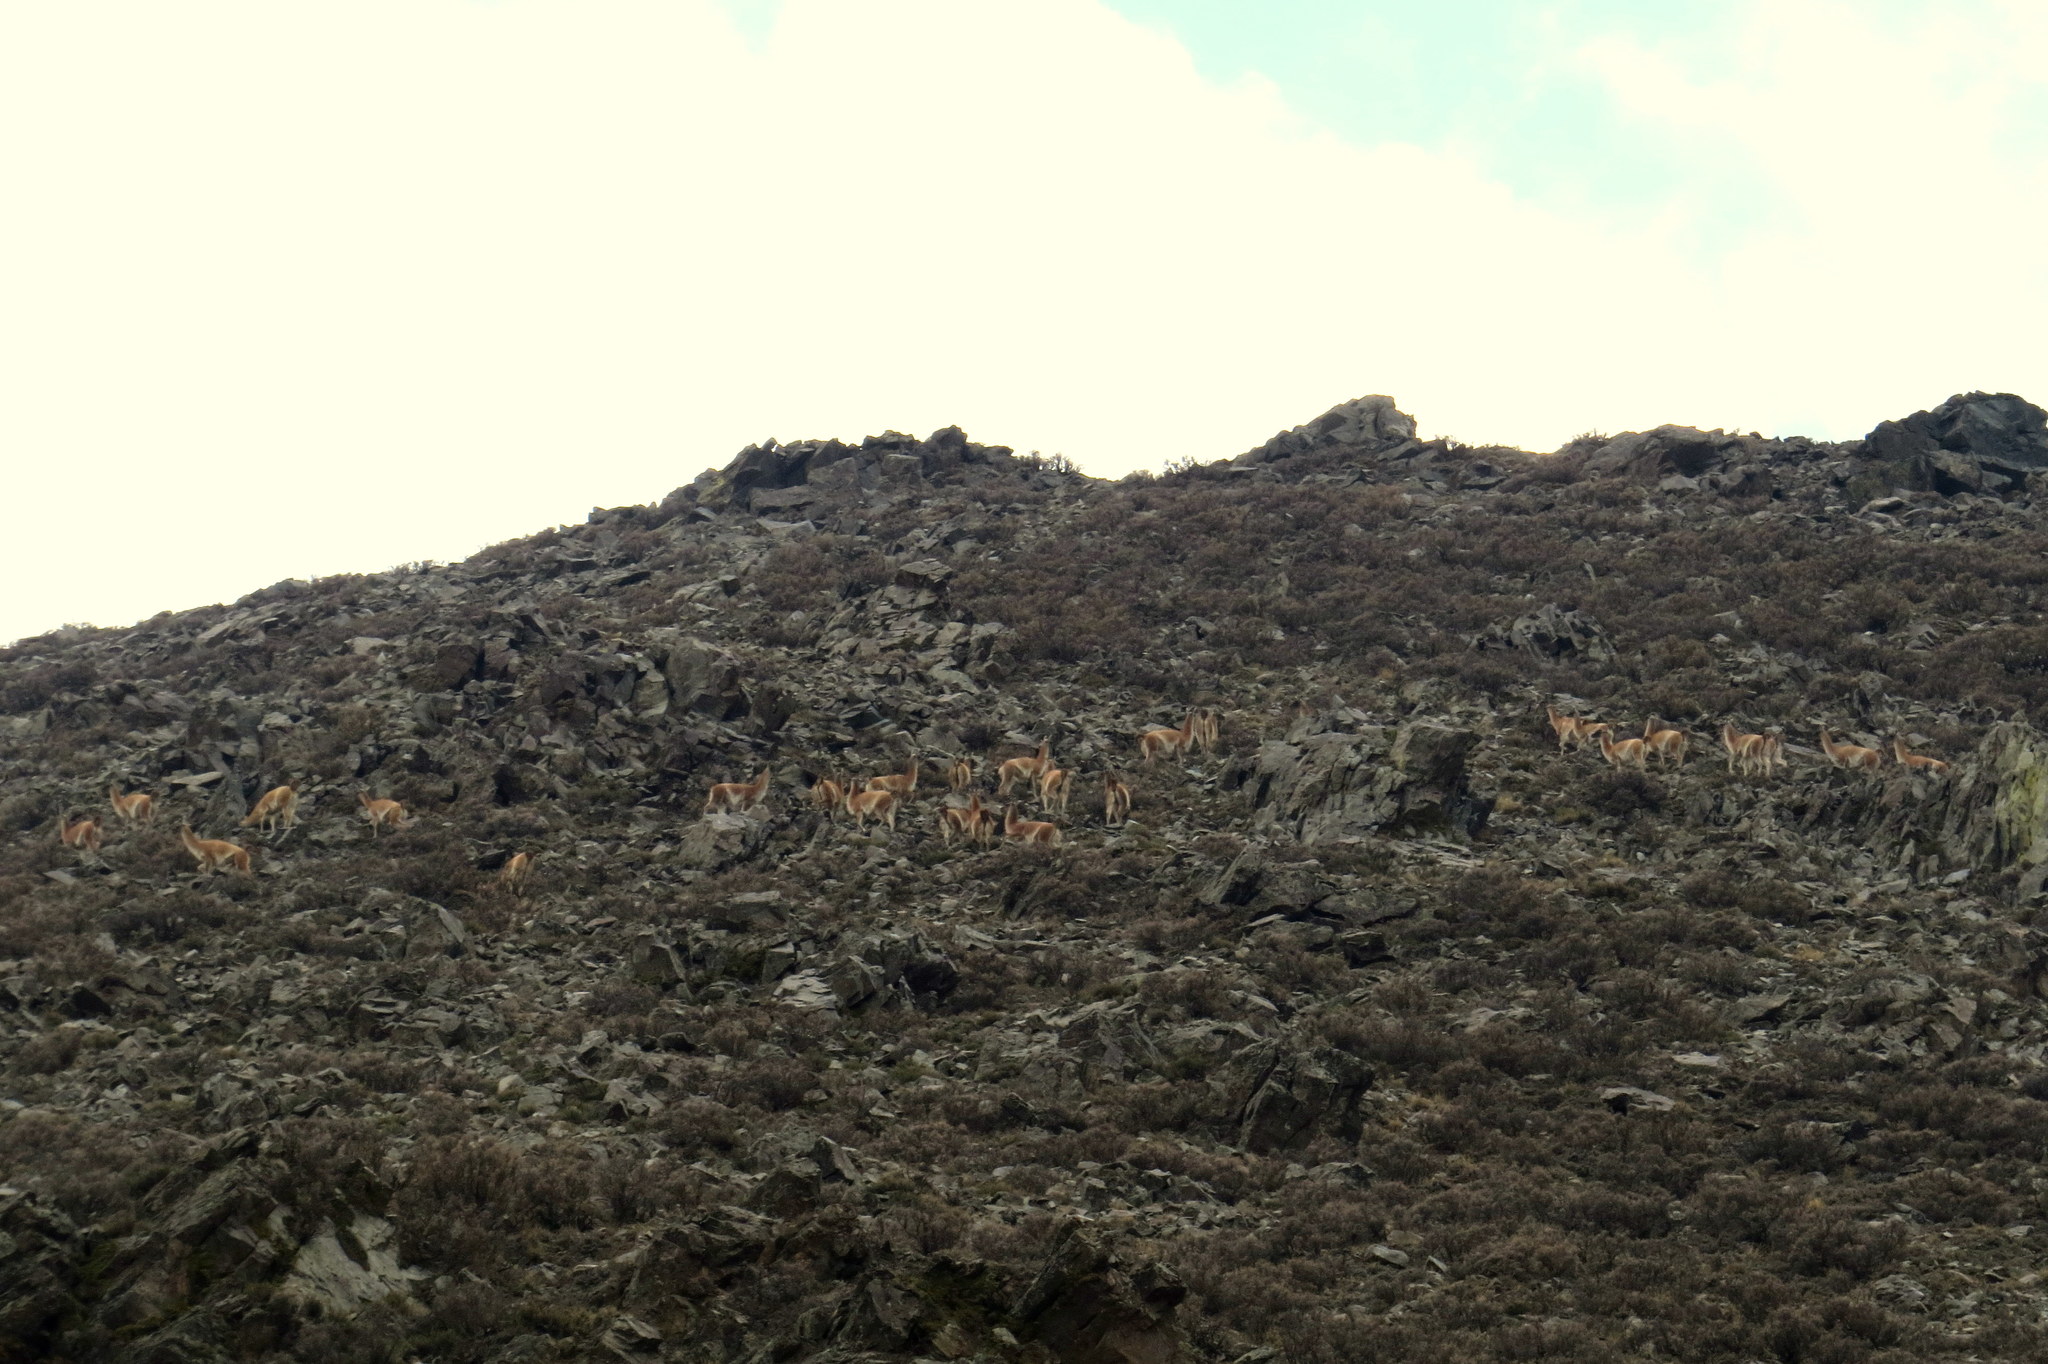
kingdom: Animalia
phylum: Chordata
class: Mammalia
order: Artiodactyla
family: Camelidae
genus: Lama
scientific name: Lama glama
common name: Llama
